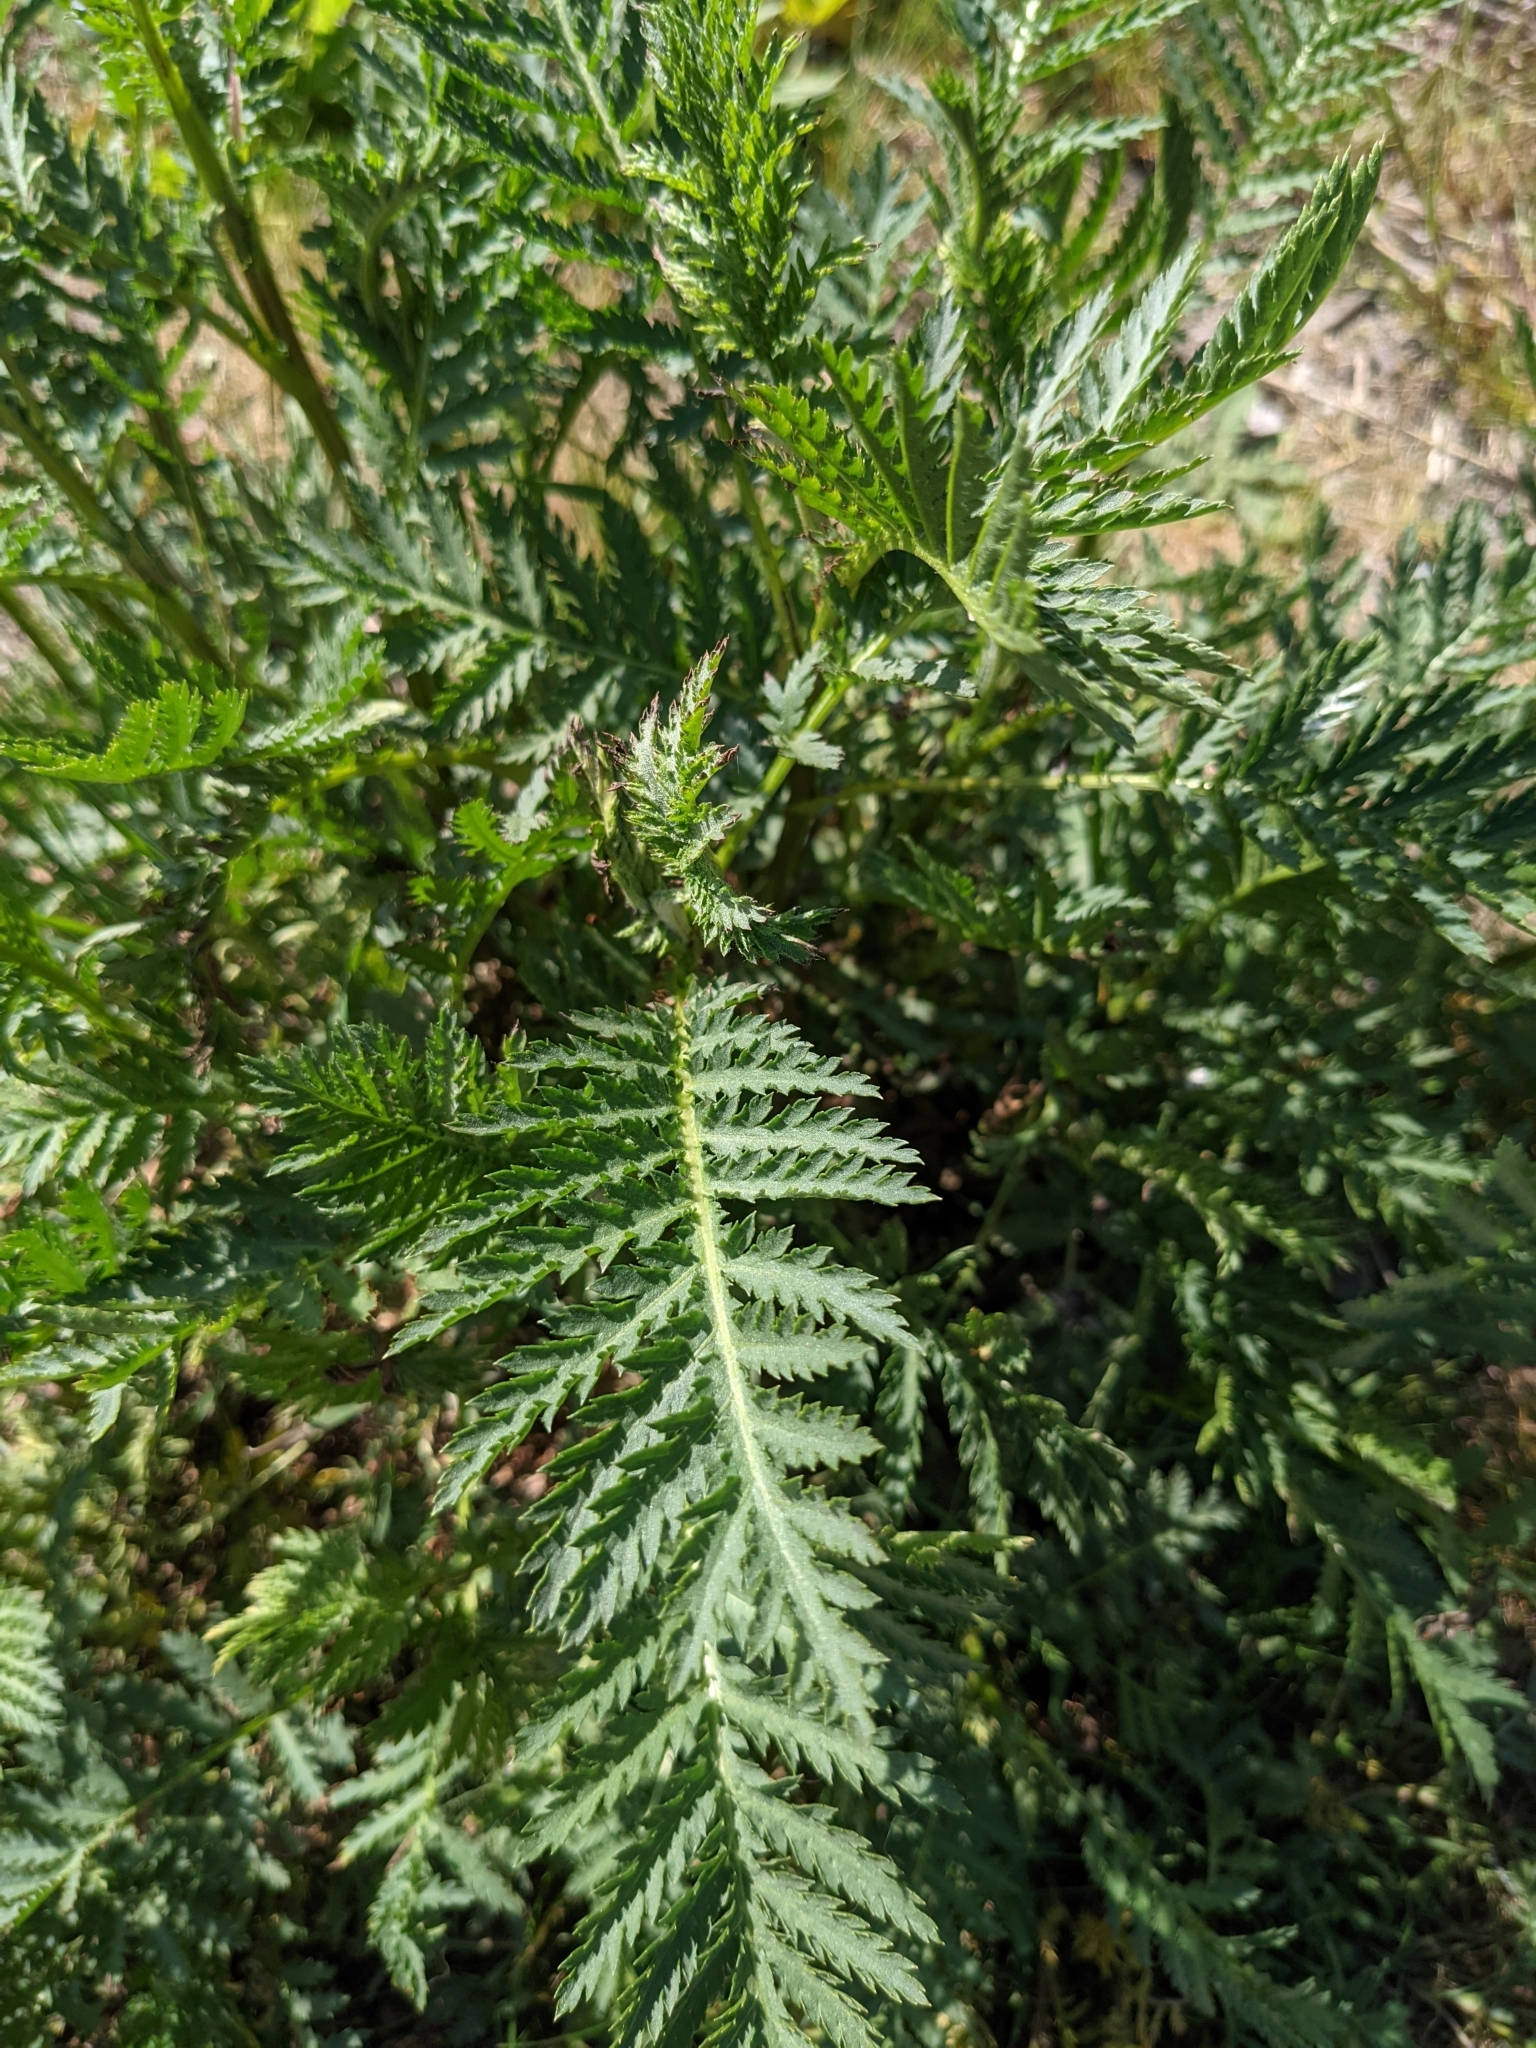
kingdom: Plantae
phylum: Tracheophyta
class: Magnoliopsida
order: Asterales
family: Asteraceae
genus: Tanacetum
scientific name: Tanacetum vulgare
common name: Common tansy
